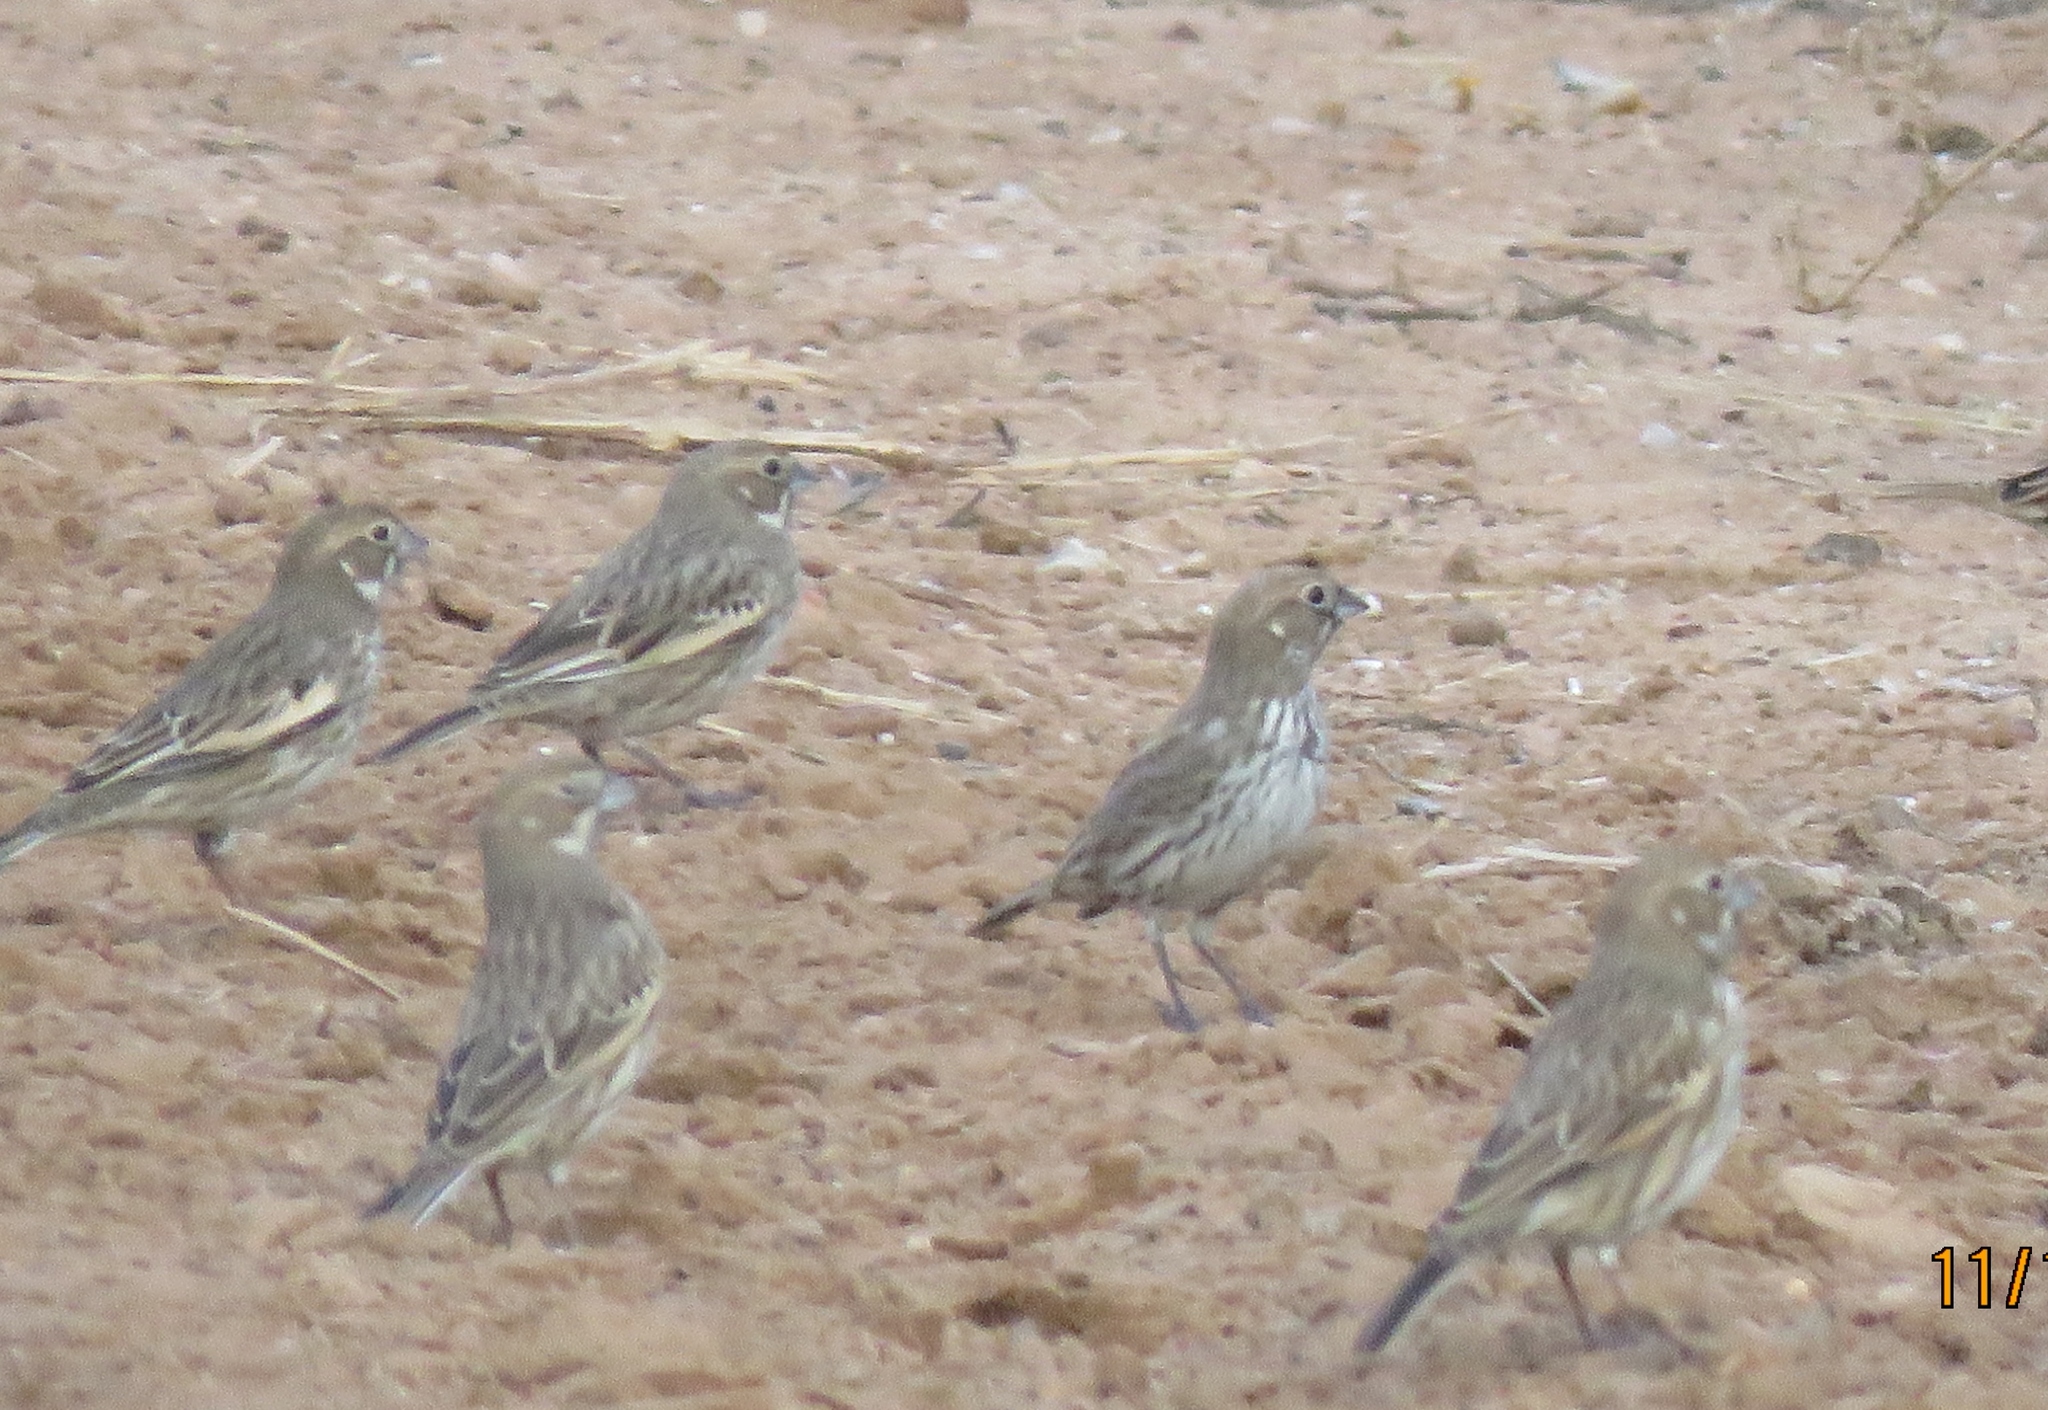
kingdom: Animalia
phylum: Chordata
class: Aves
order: Passeriformes
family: Passerellidae
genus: Calamospiza
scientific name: Calamospiza melanocorys
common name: Lark bunting
